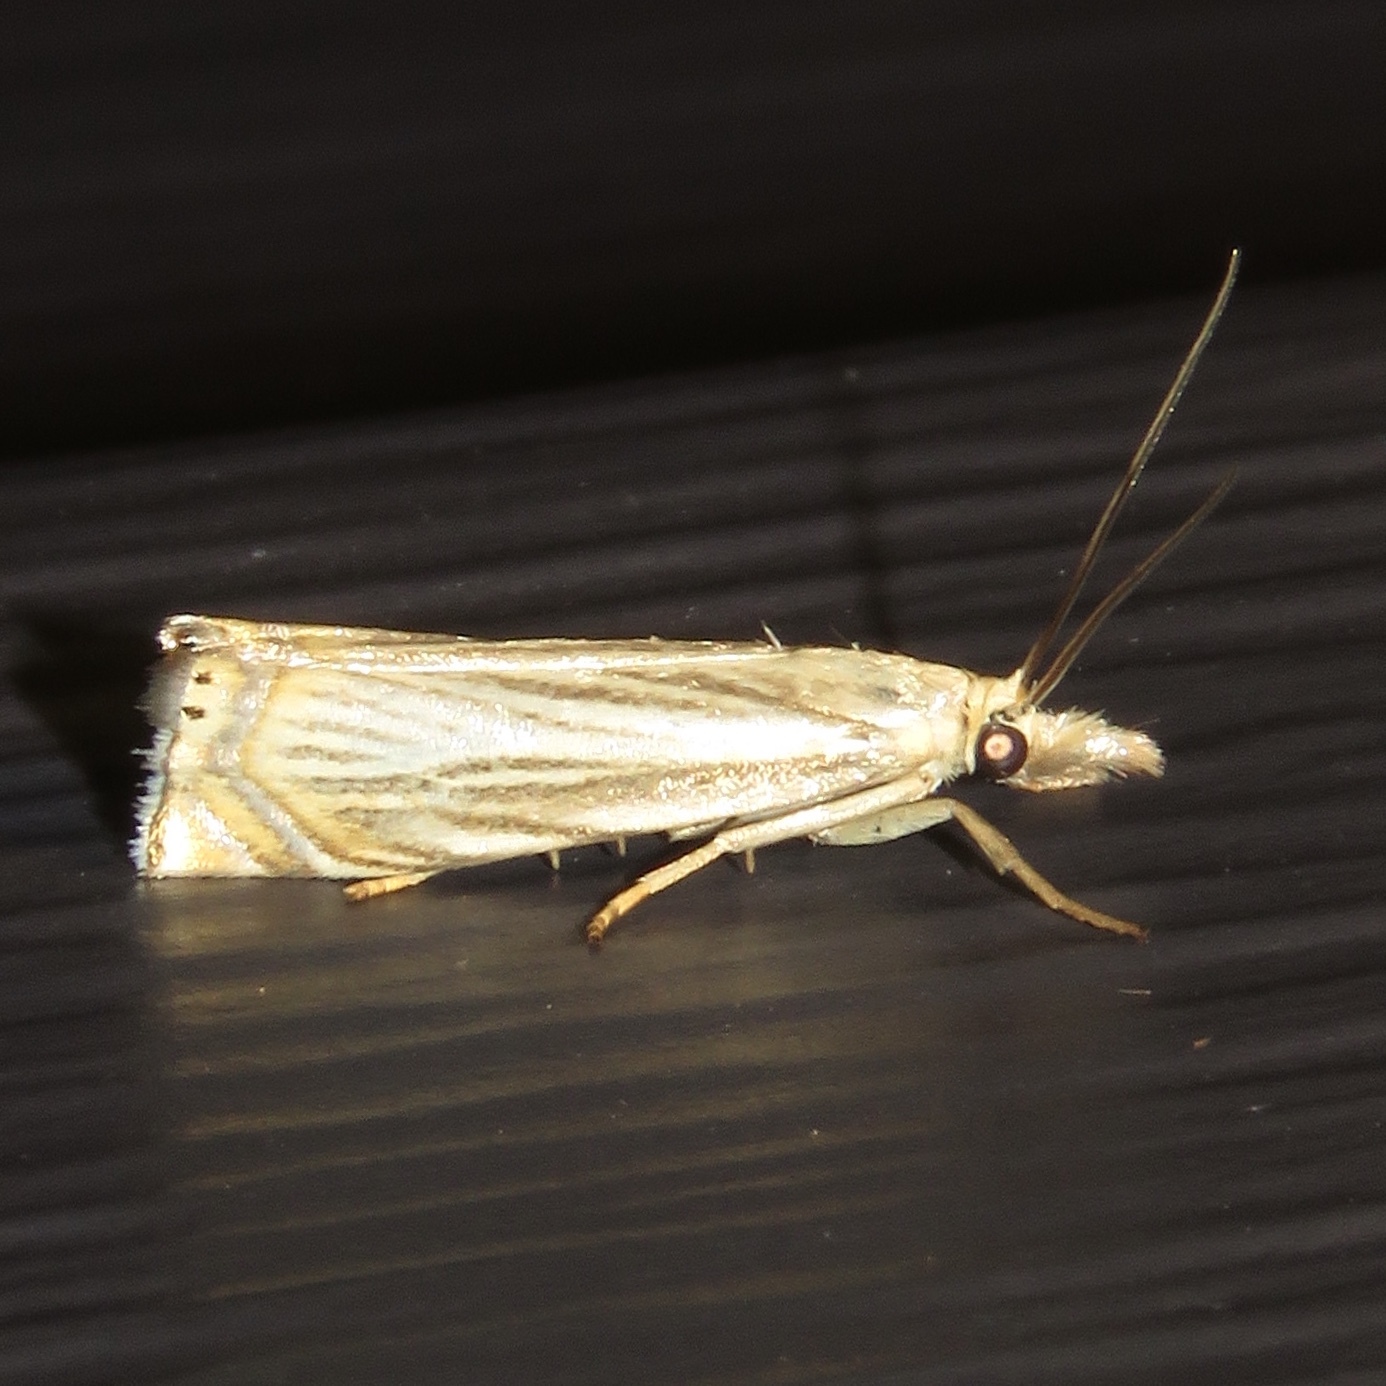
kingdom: Animalia
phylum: Arthropoda
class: Insecta
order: Lepidoptera
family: Crambidae
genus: Chrysoteuchia
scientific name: Chrysoteuchia topiarius
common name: Topiary grass-veneer
